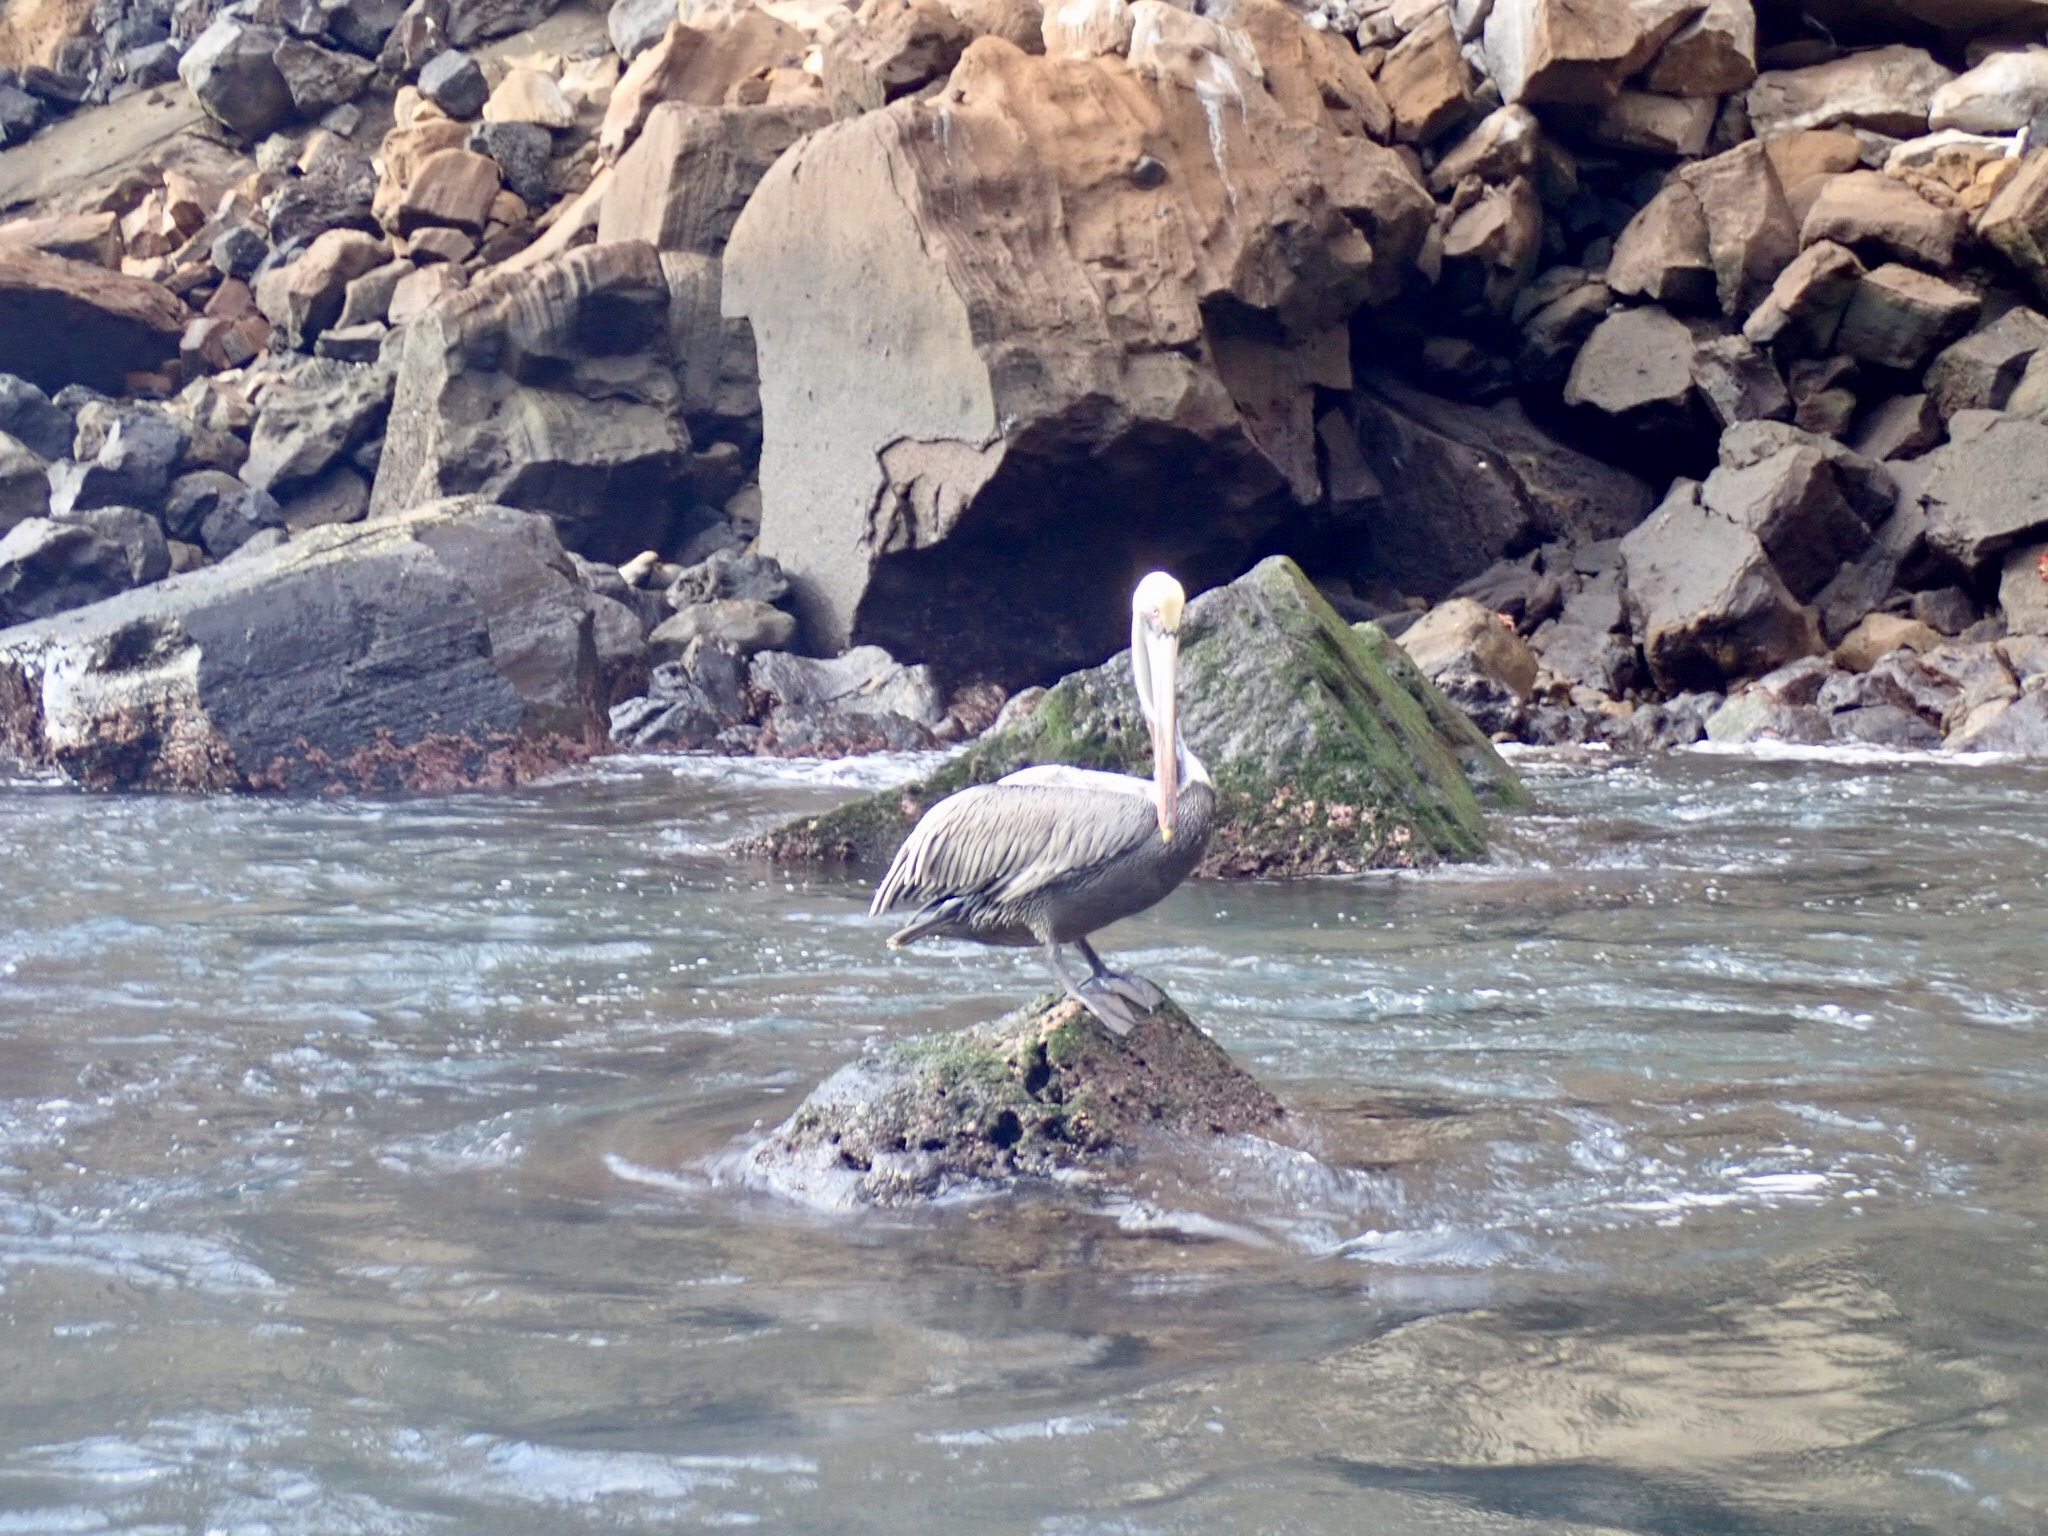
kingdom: Animalia
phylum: Chordata
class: Aves
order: Pelecaniformes
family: Pelecanidae
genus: Pelecanus
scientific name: Pelecanus occidentalis
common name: Brown pelican
